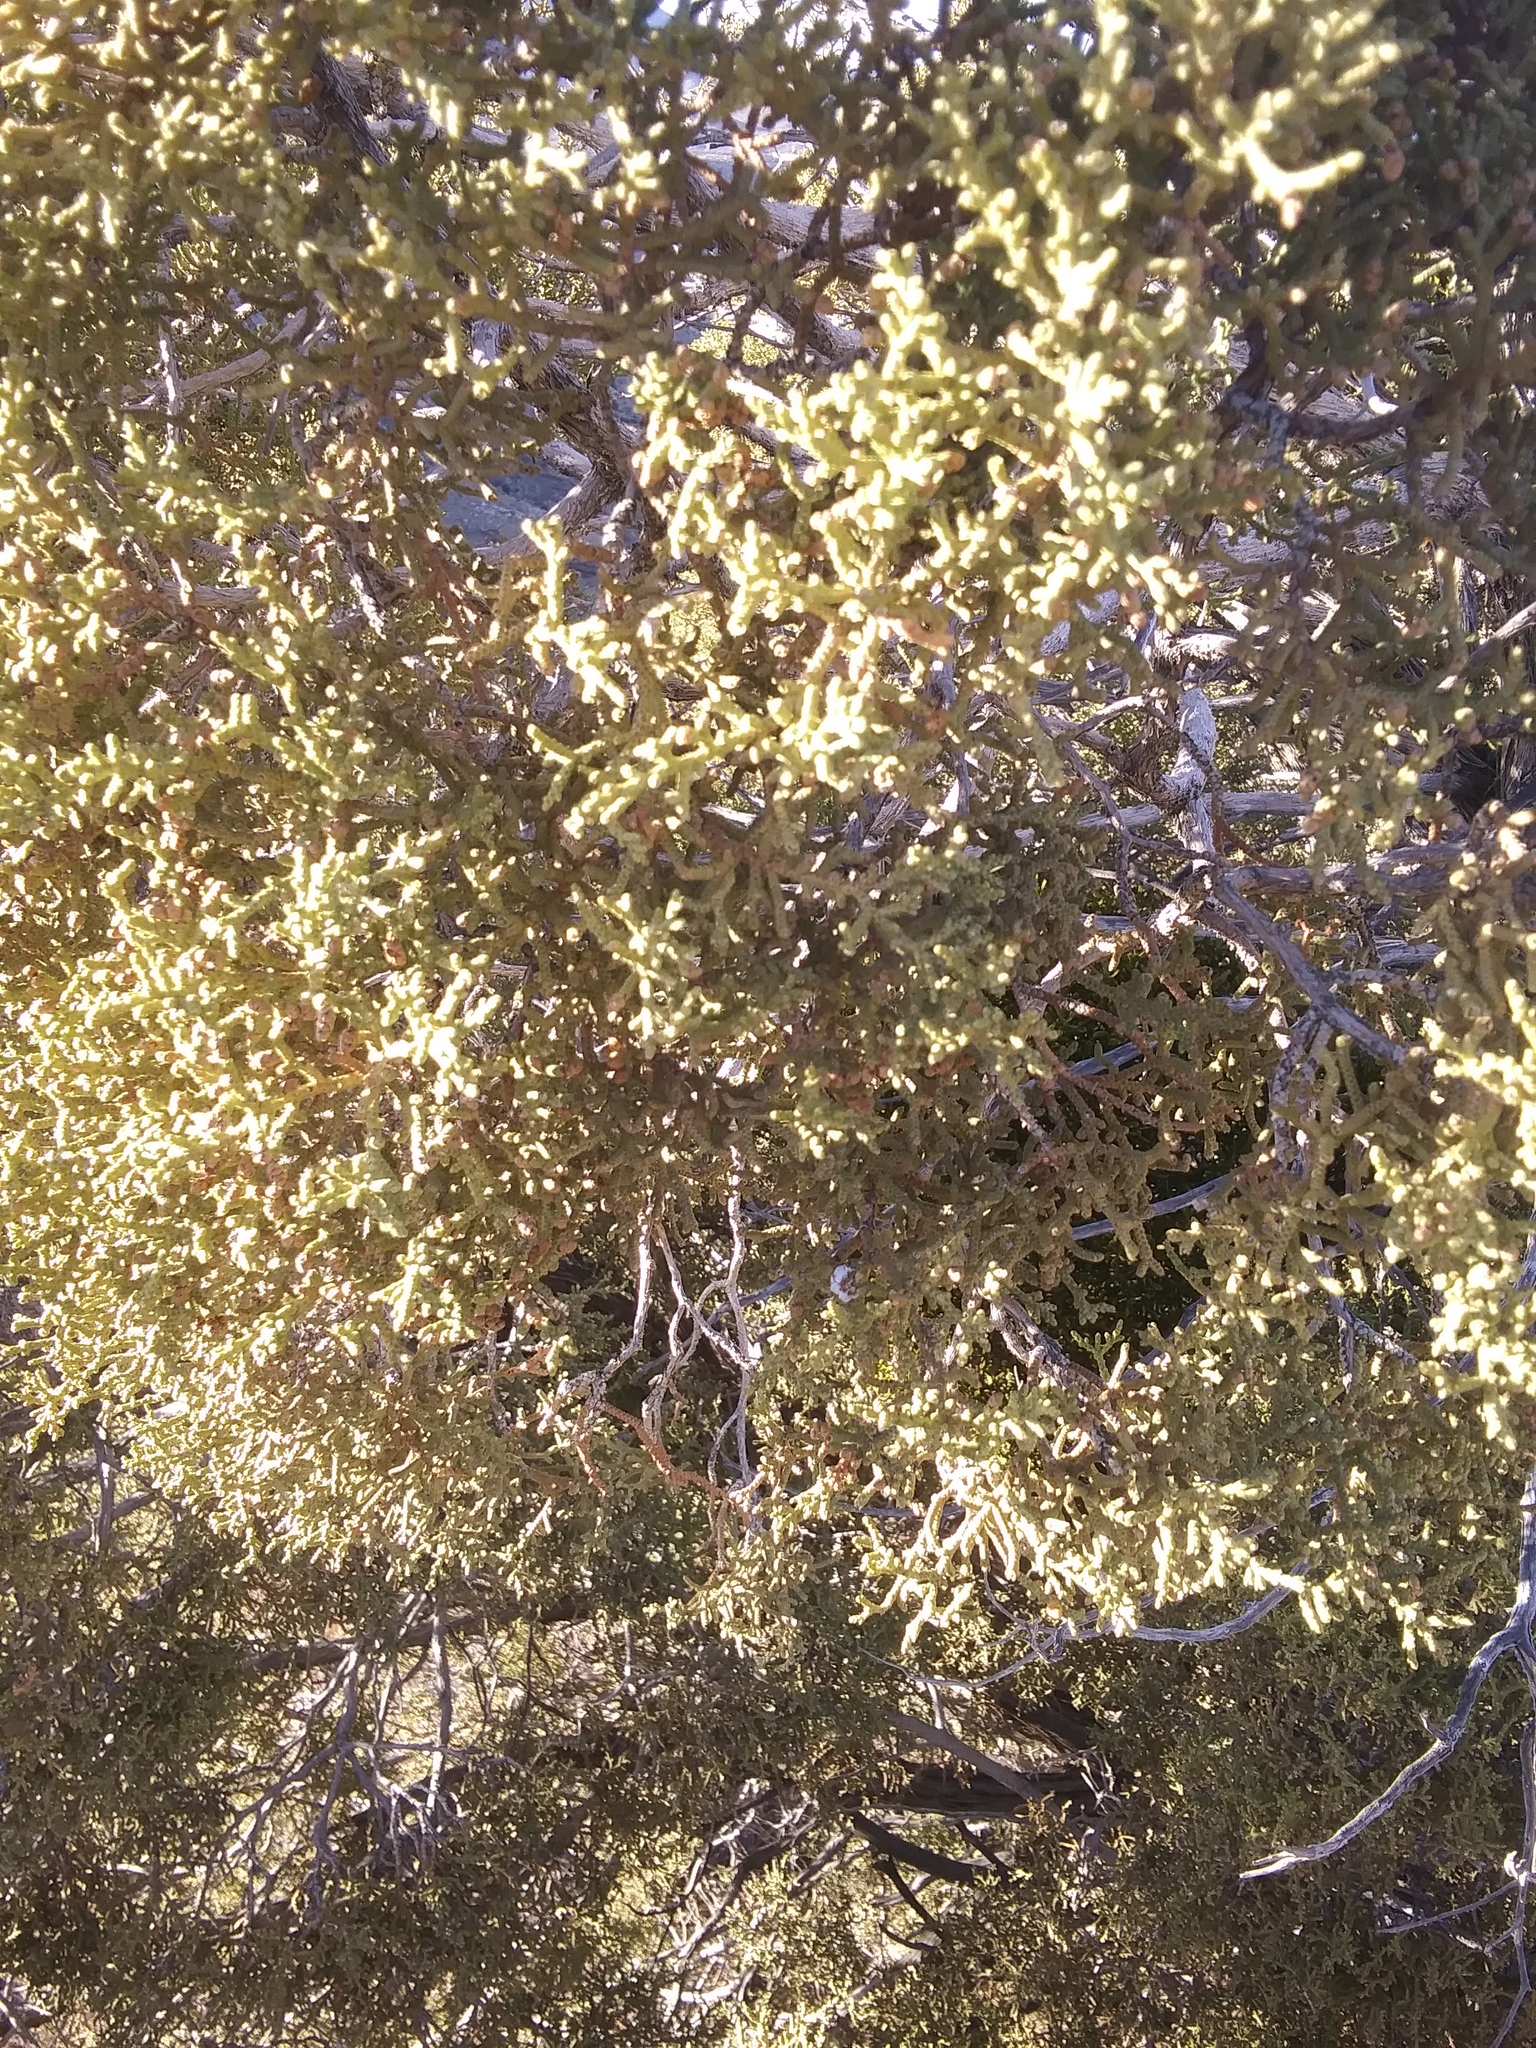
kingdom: Plantae
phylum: Tracheophyta
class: Pinopsida
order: Pinales
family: Cupressaceae
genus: Juniperus
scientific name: Juniperus californica
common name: California juniper
